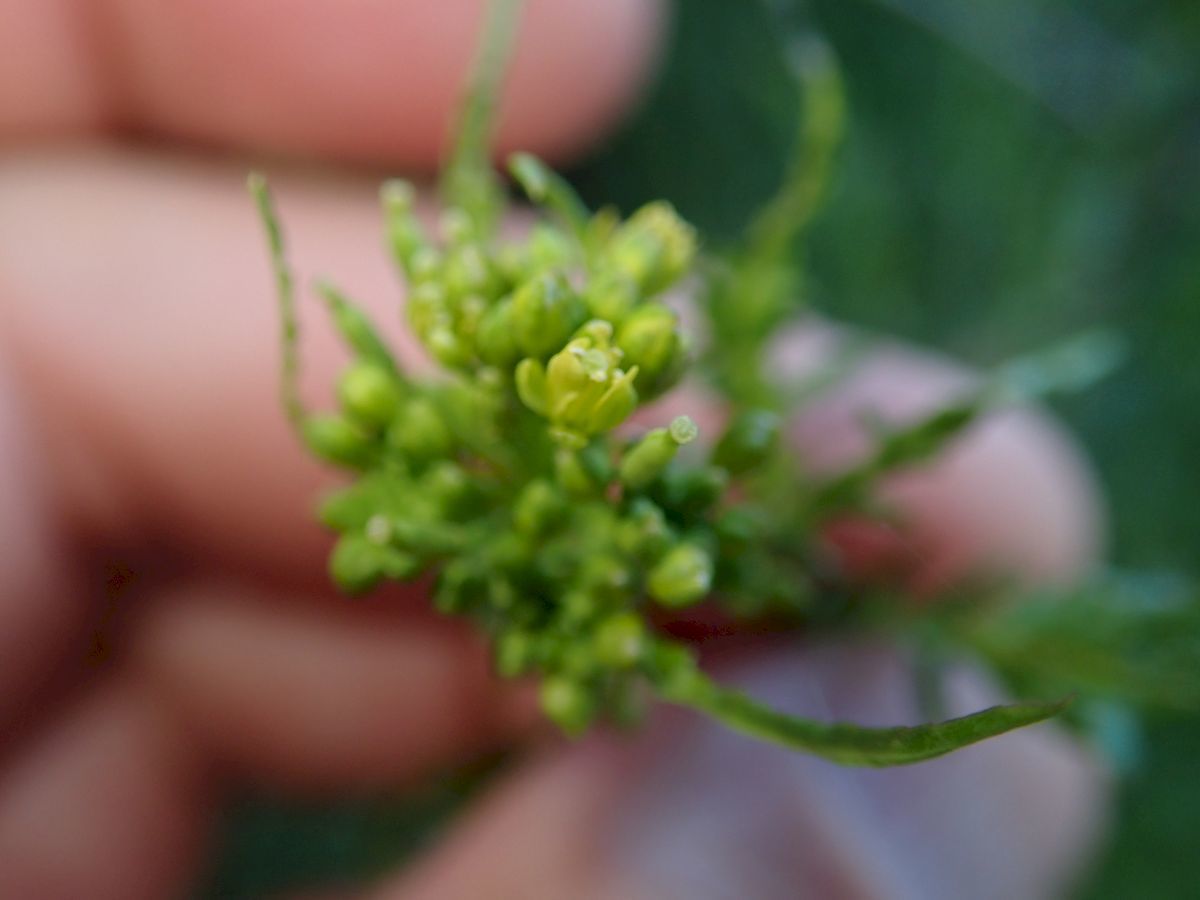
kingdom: Plantae
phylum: Tracheophyta
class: Magnoliopsida
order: Brassicales
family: Brassicaceae
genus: Rorippa
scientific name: Rorippa palustris
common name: Marsh yellow-cress
